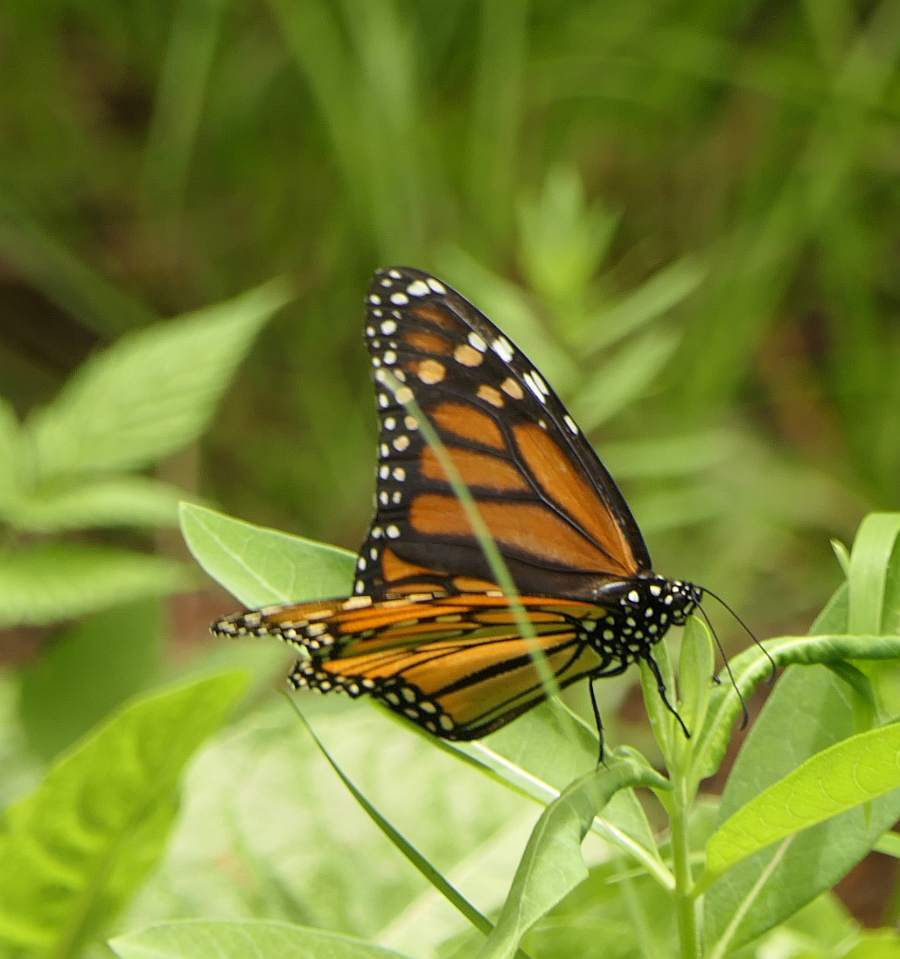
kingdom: Animalia
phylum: Arthropoda
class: Insecta
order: Lepidoptera
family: Nymphalidae
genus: Danaus
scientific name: Danaus plexippus
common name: Monarch
